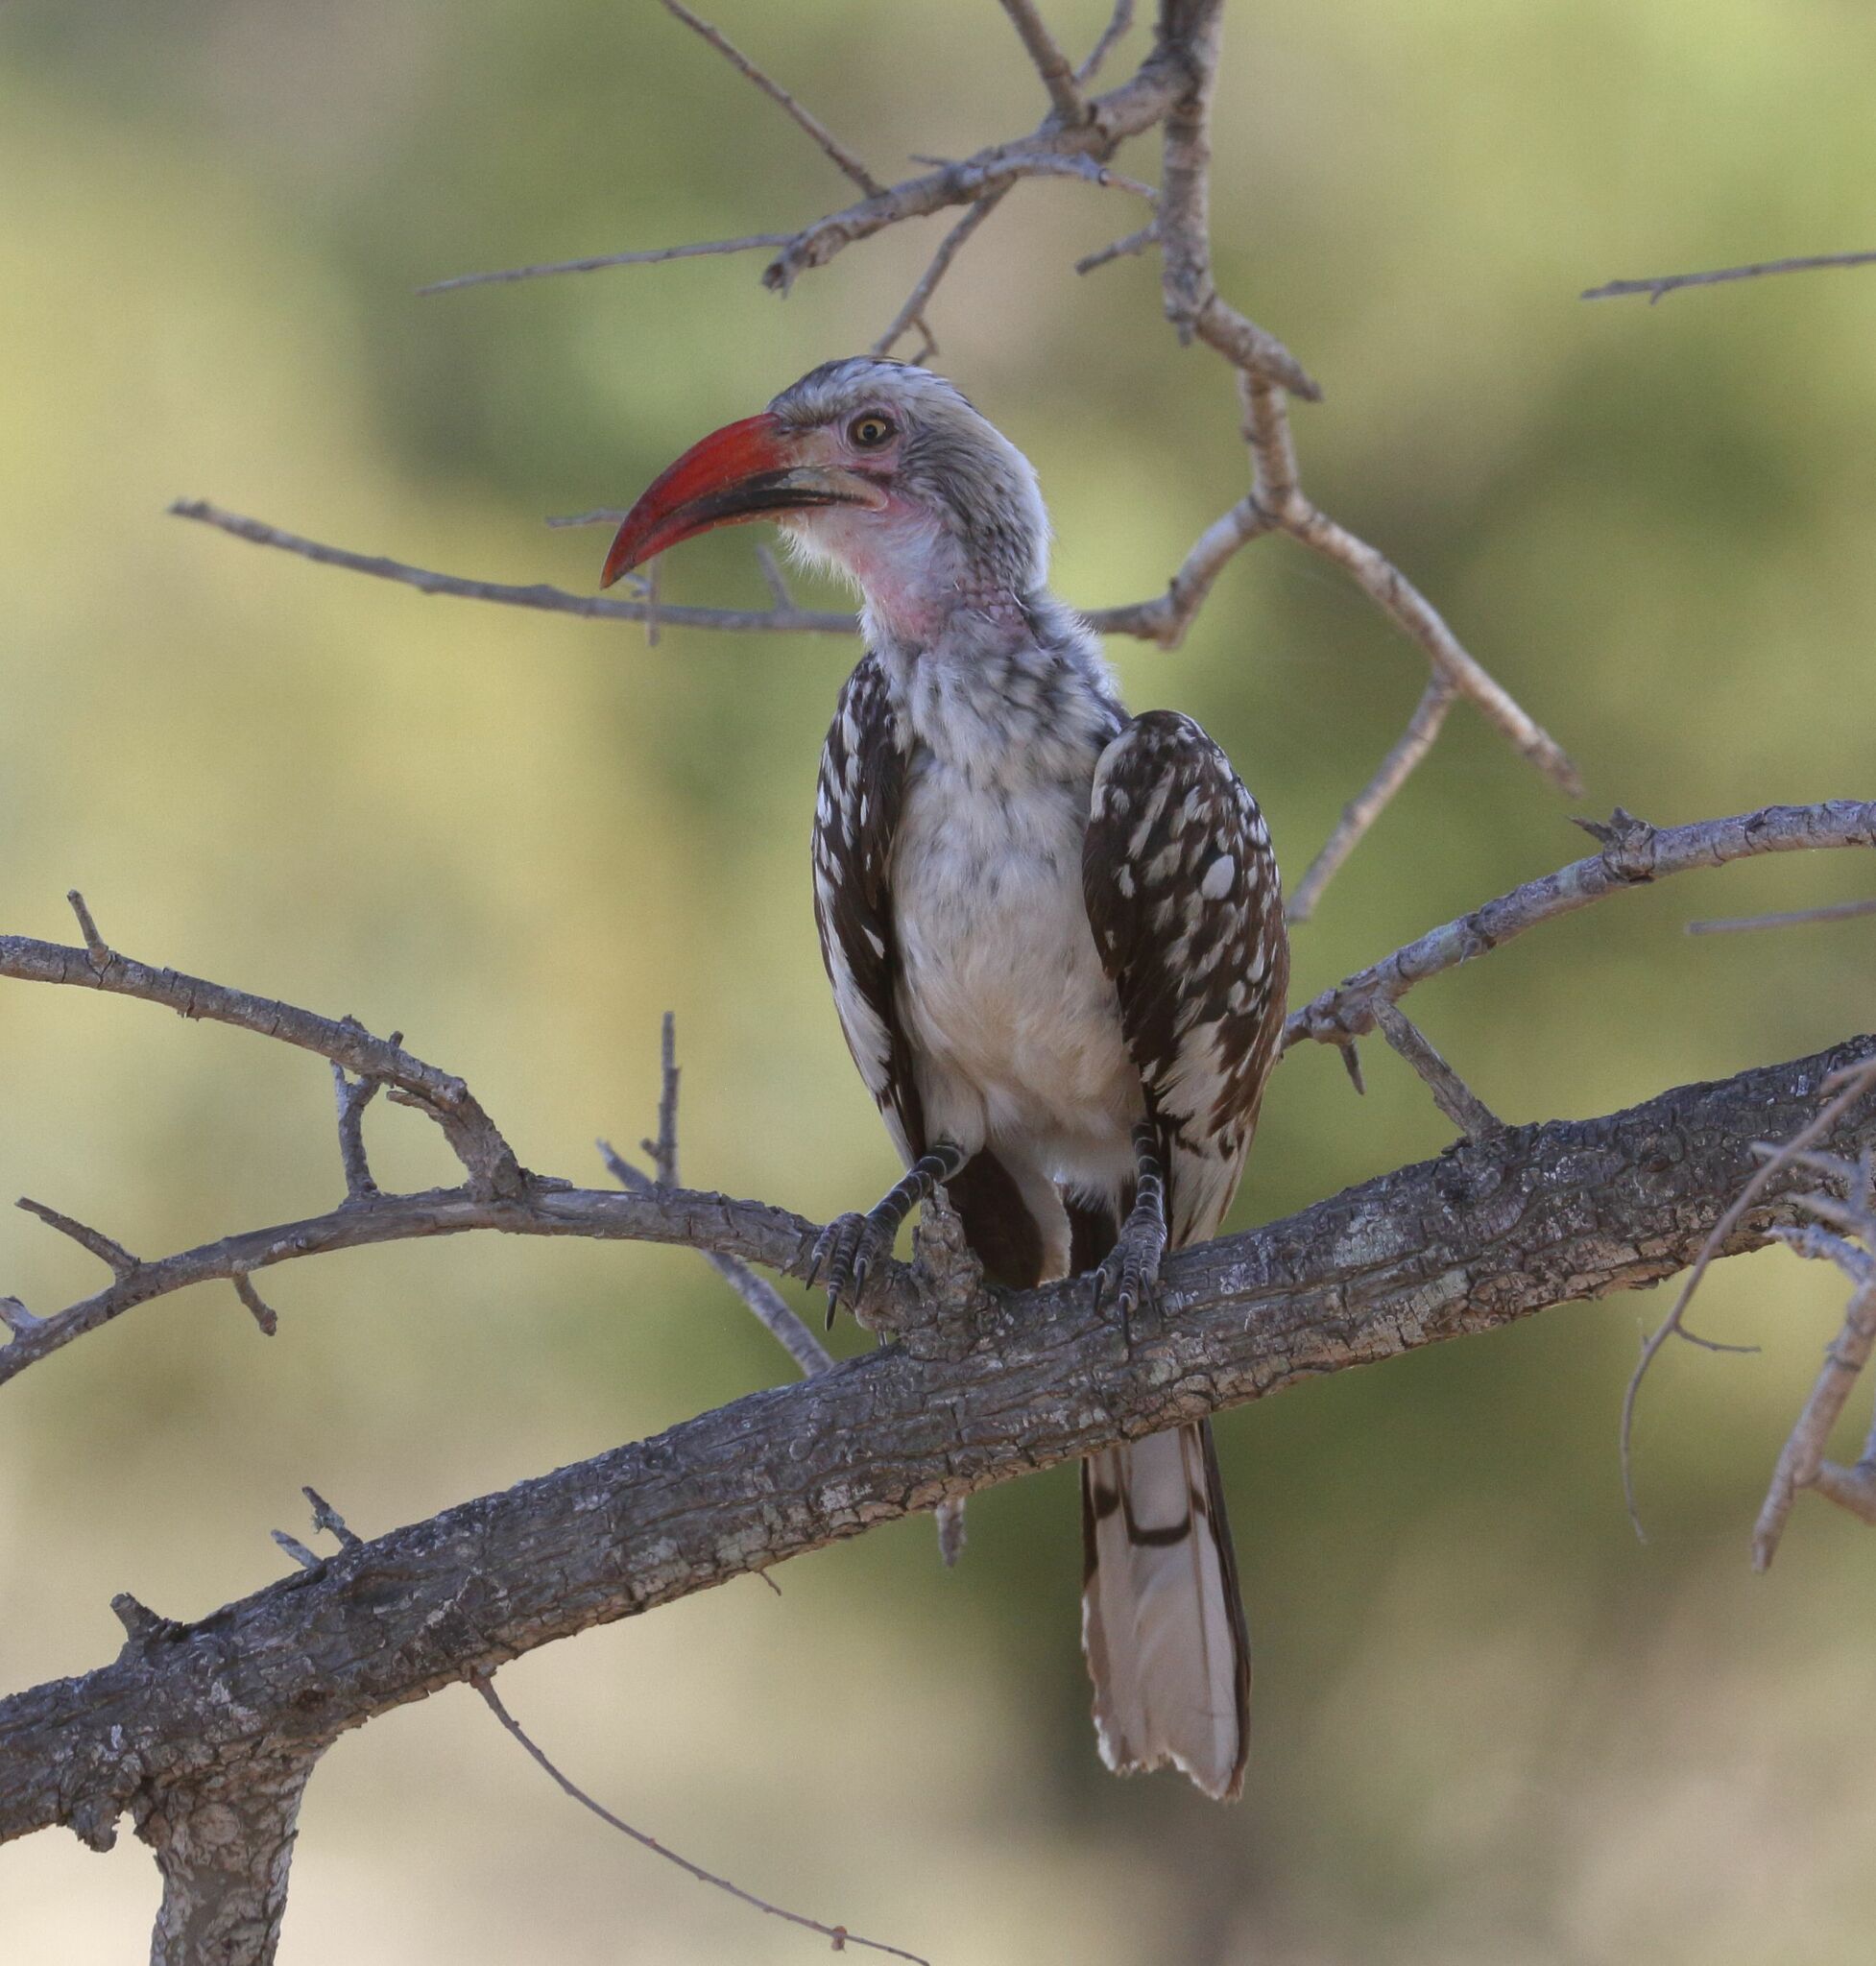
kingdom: Animalia
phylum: Chordata
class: Aves
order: Bucerotiformes
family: Bucerotidae
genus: Tockus
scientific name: Tockus rufirostris
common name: Southern red-billed hornbill
